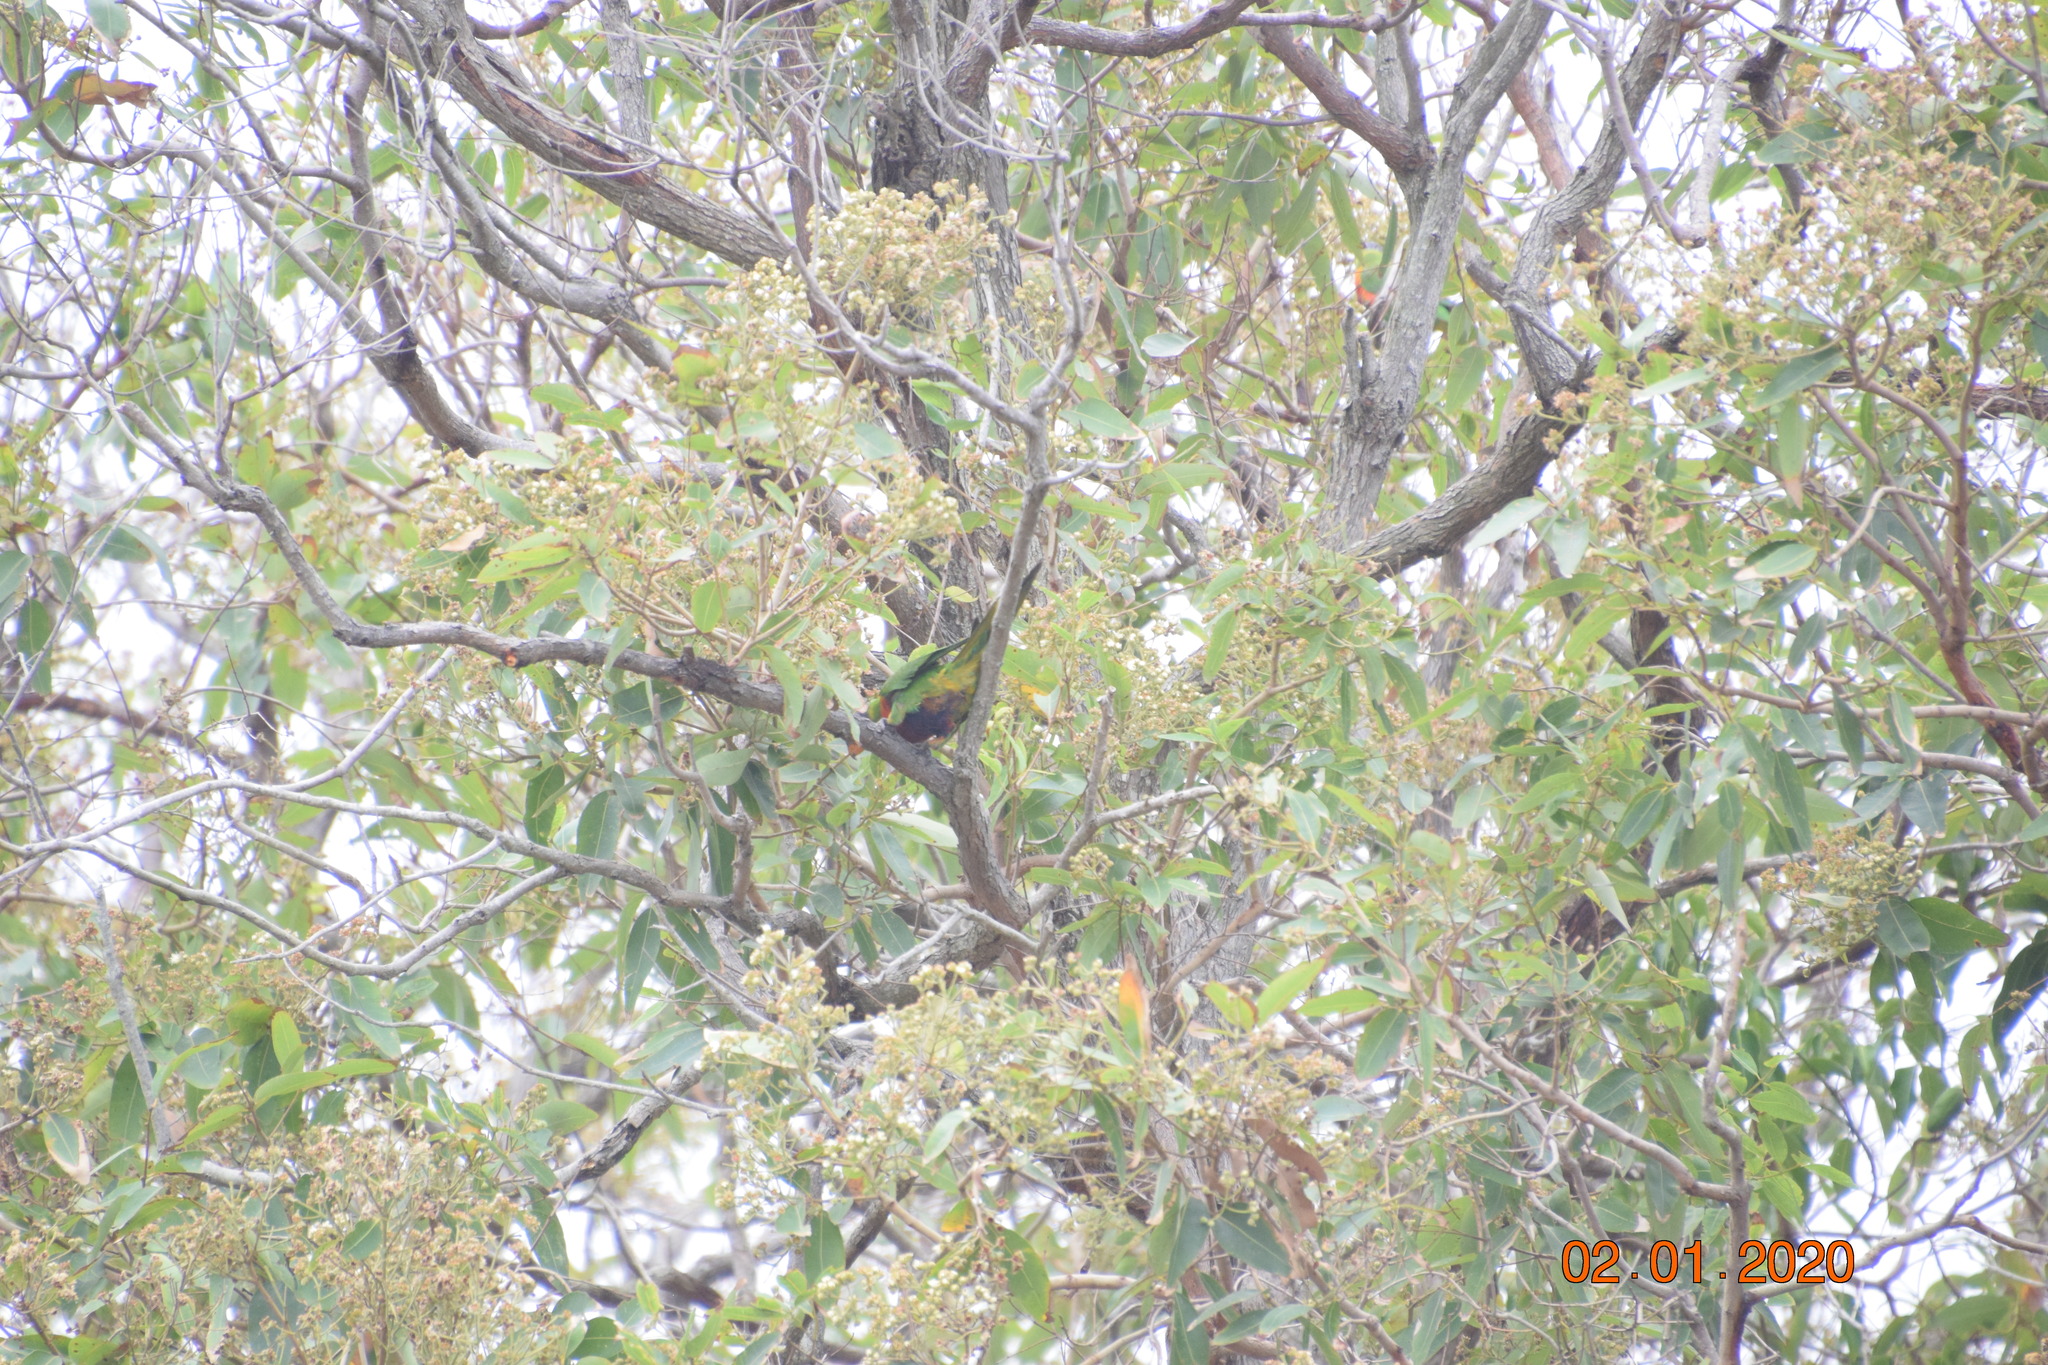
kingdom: Animalia
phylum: Chordata
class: Aves
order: Psittaciformes
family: Psittacidae
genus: Trichoglossus
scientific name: Trichoglossus haematodus
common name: Coconut lorikeet
